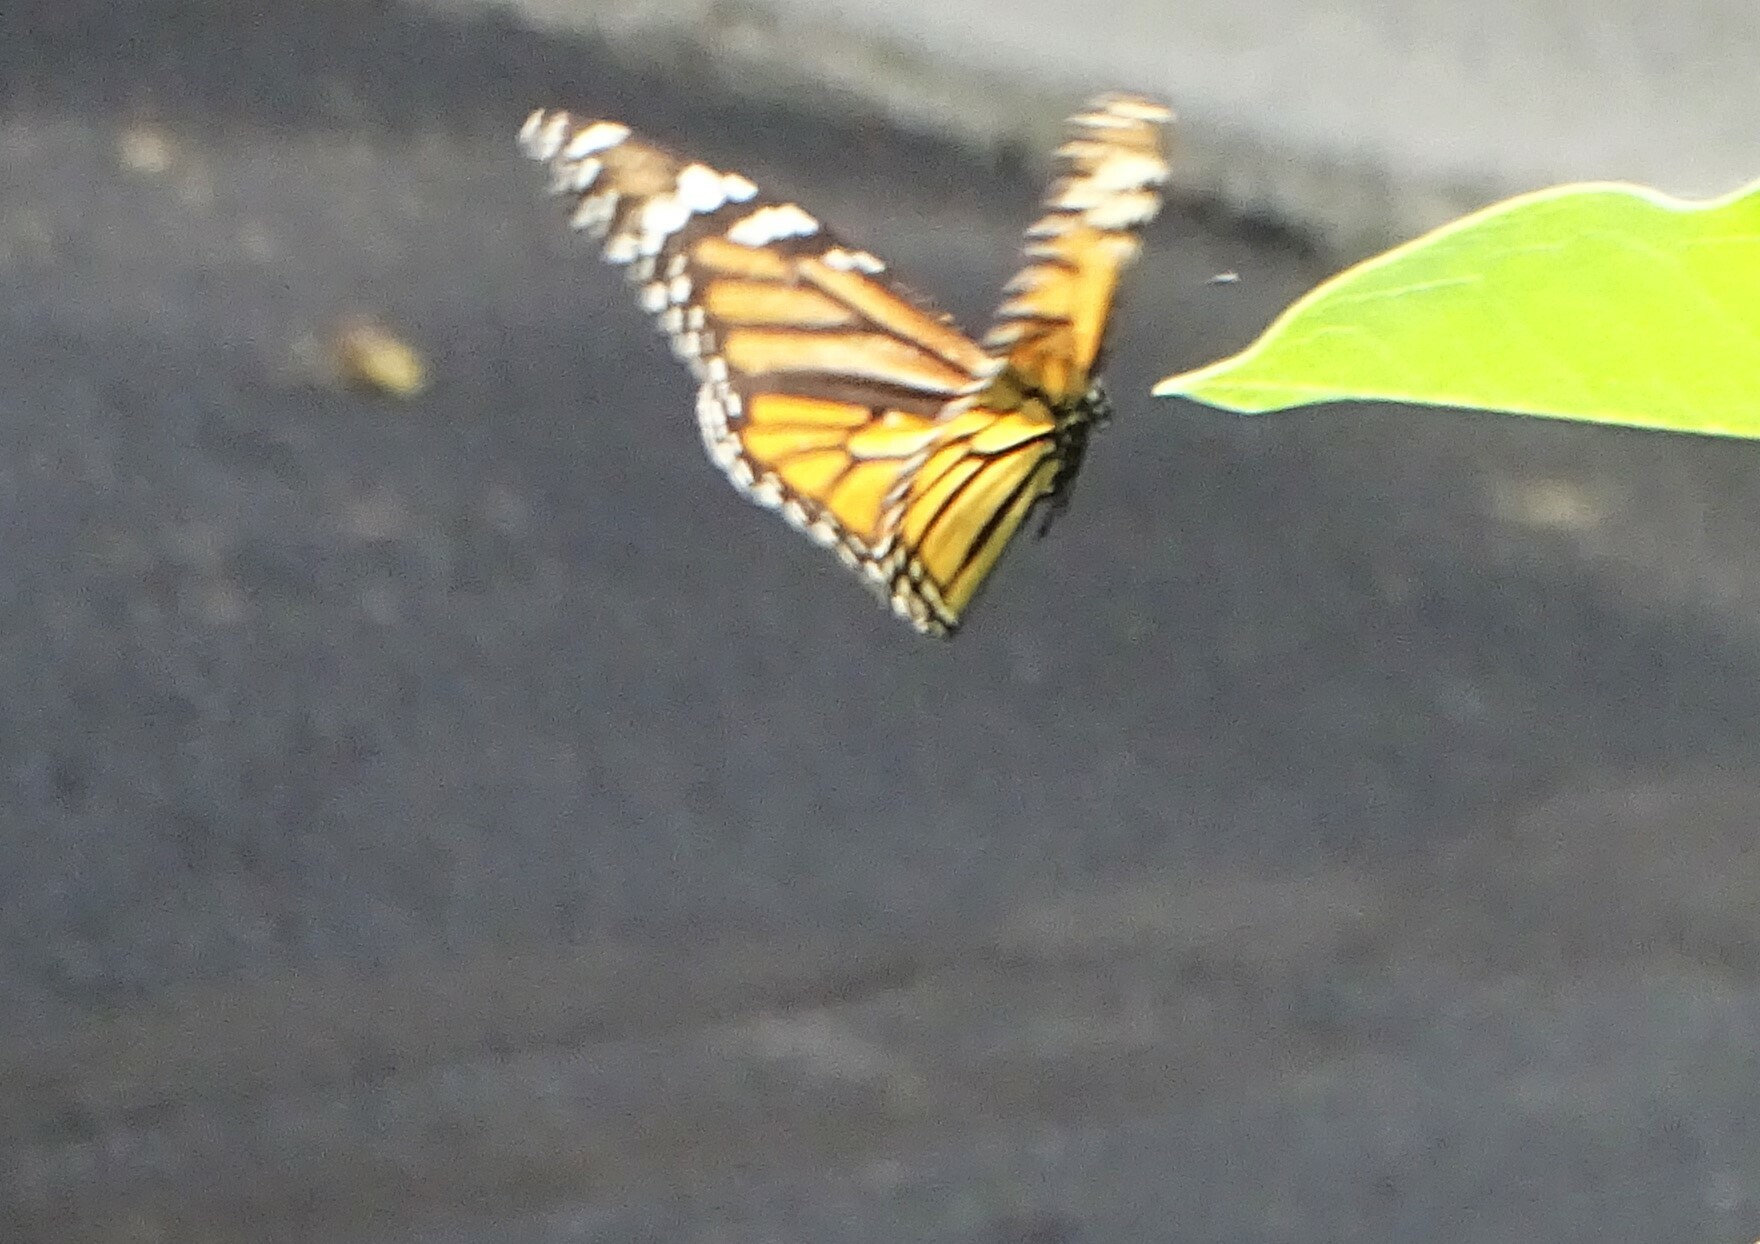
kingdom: Animalia
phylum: Arthropoda
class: Insecta
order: Lepidoptera
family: Nymphalidae
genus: Danaus
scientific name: Danaus plexippus
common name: Monarch
